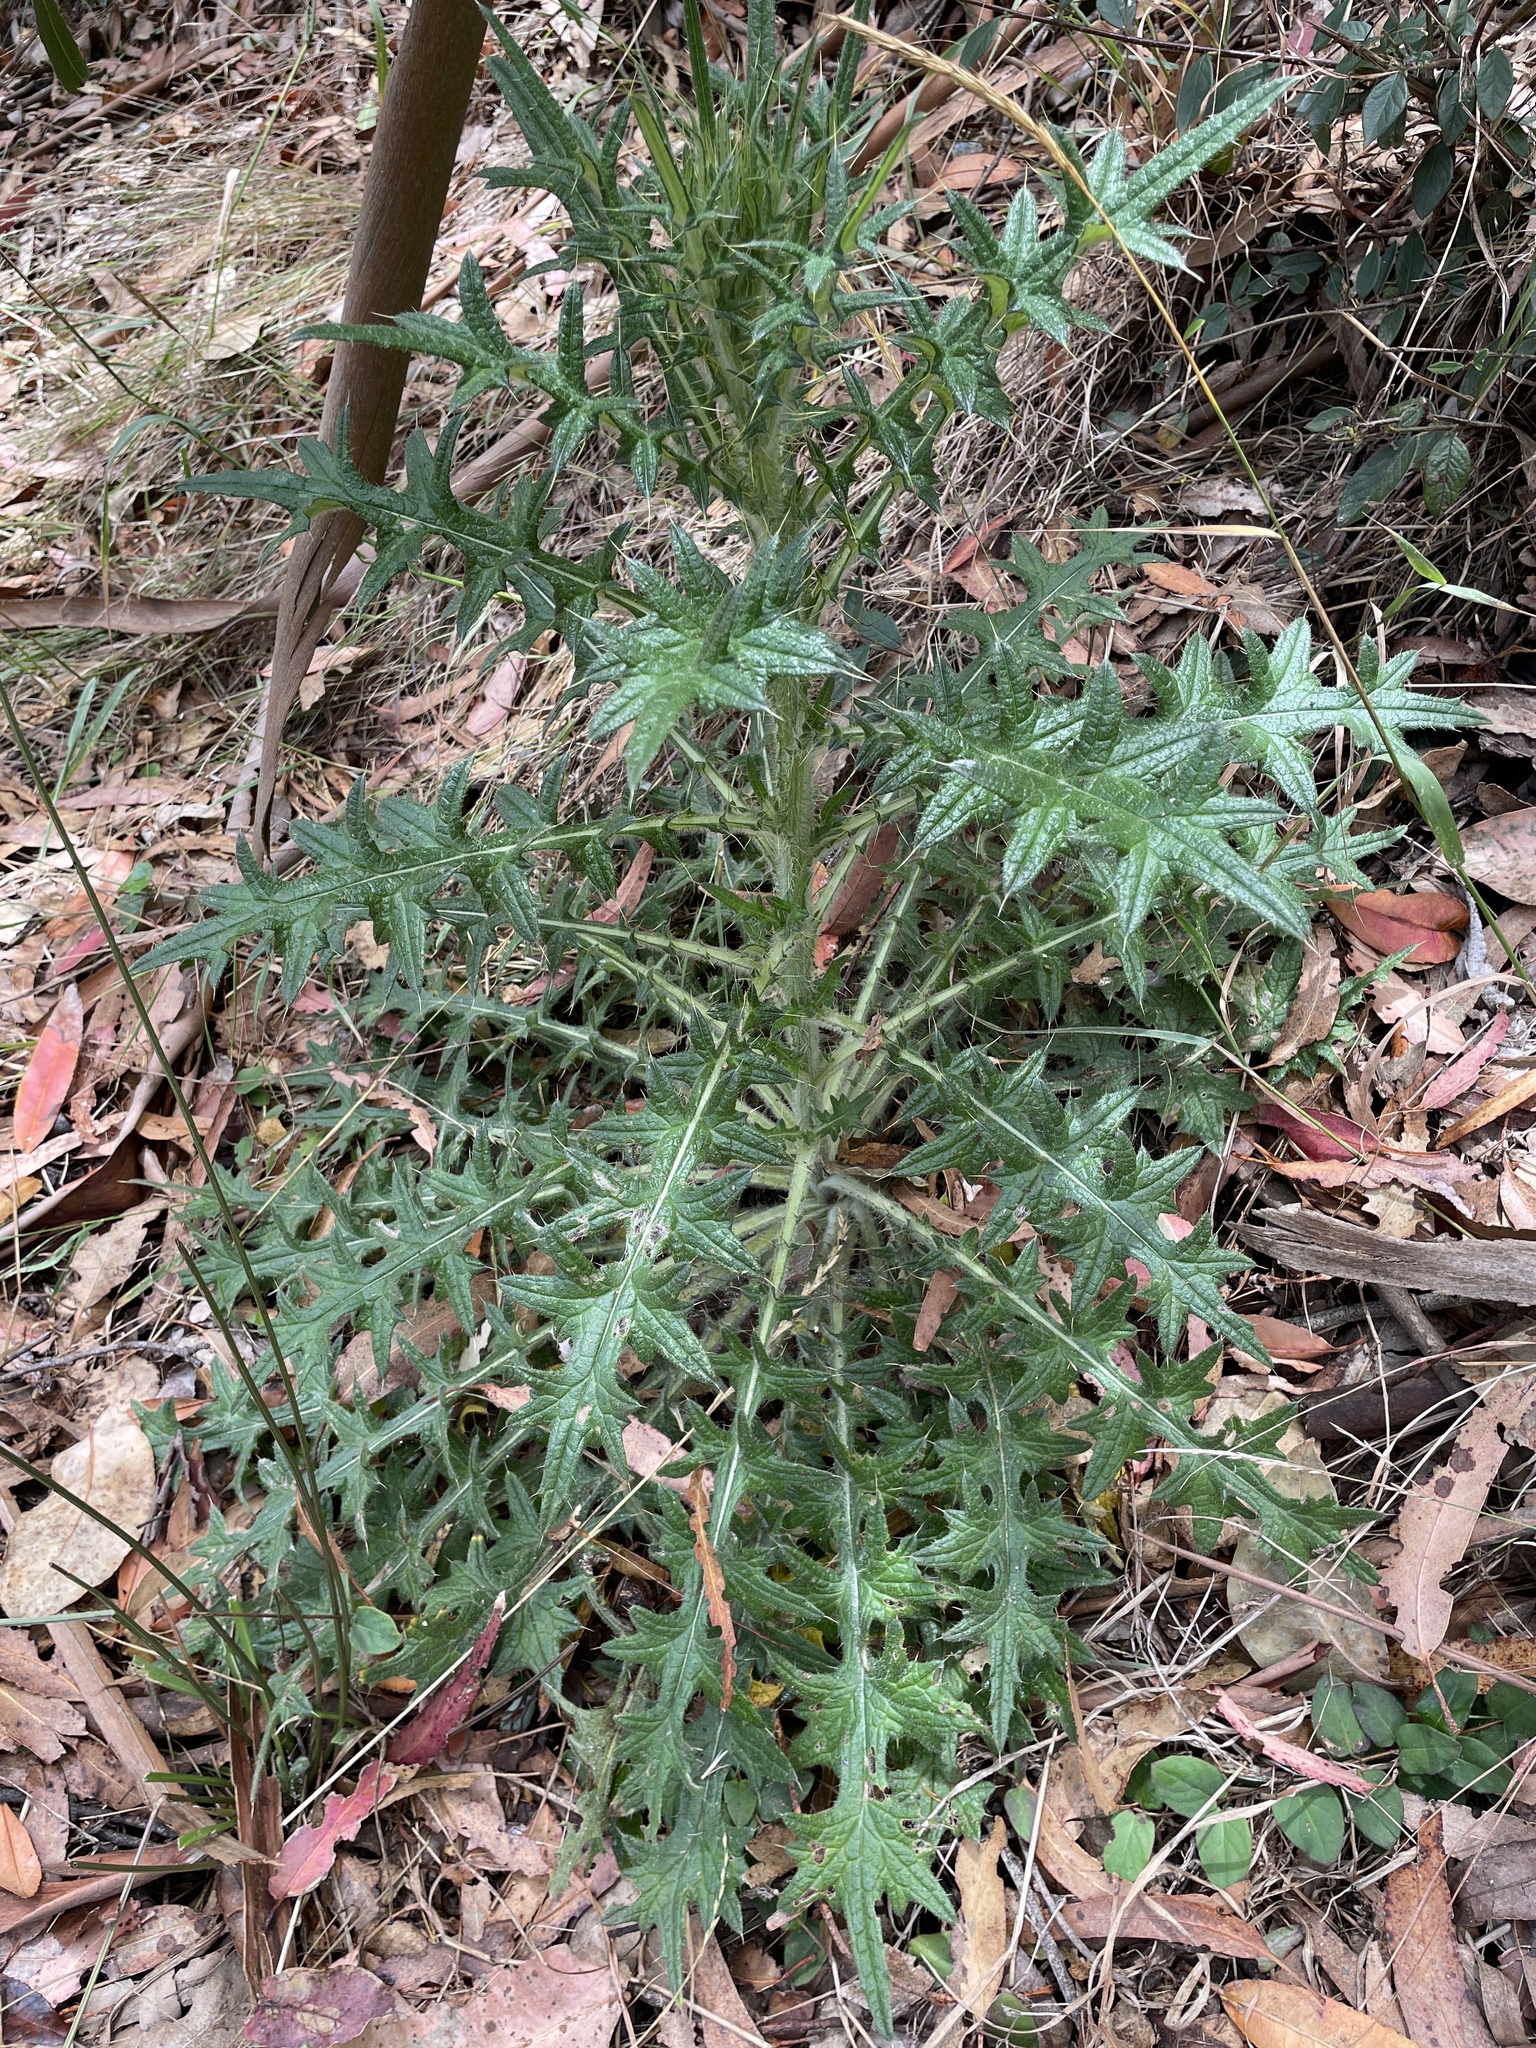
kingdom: Plantae
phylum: Tracheophyta
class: Magnoliopsida
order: Asterales
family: Asteraceae
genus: Cirsium
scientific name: Cirsium vulgare
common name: Bull thistle
